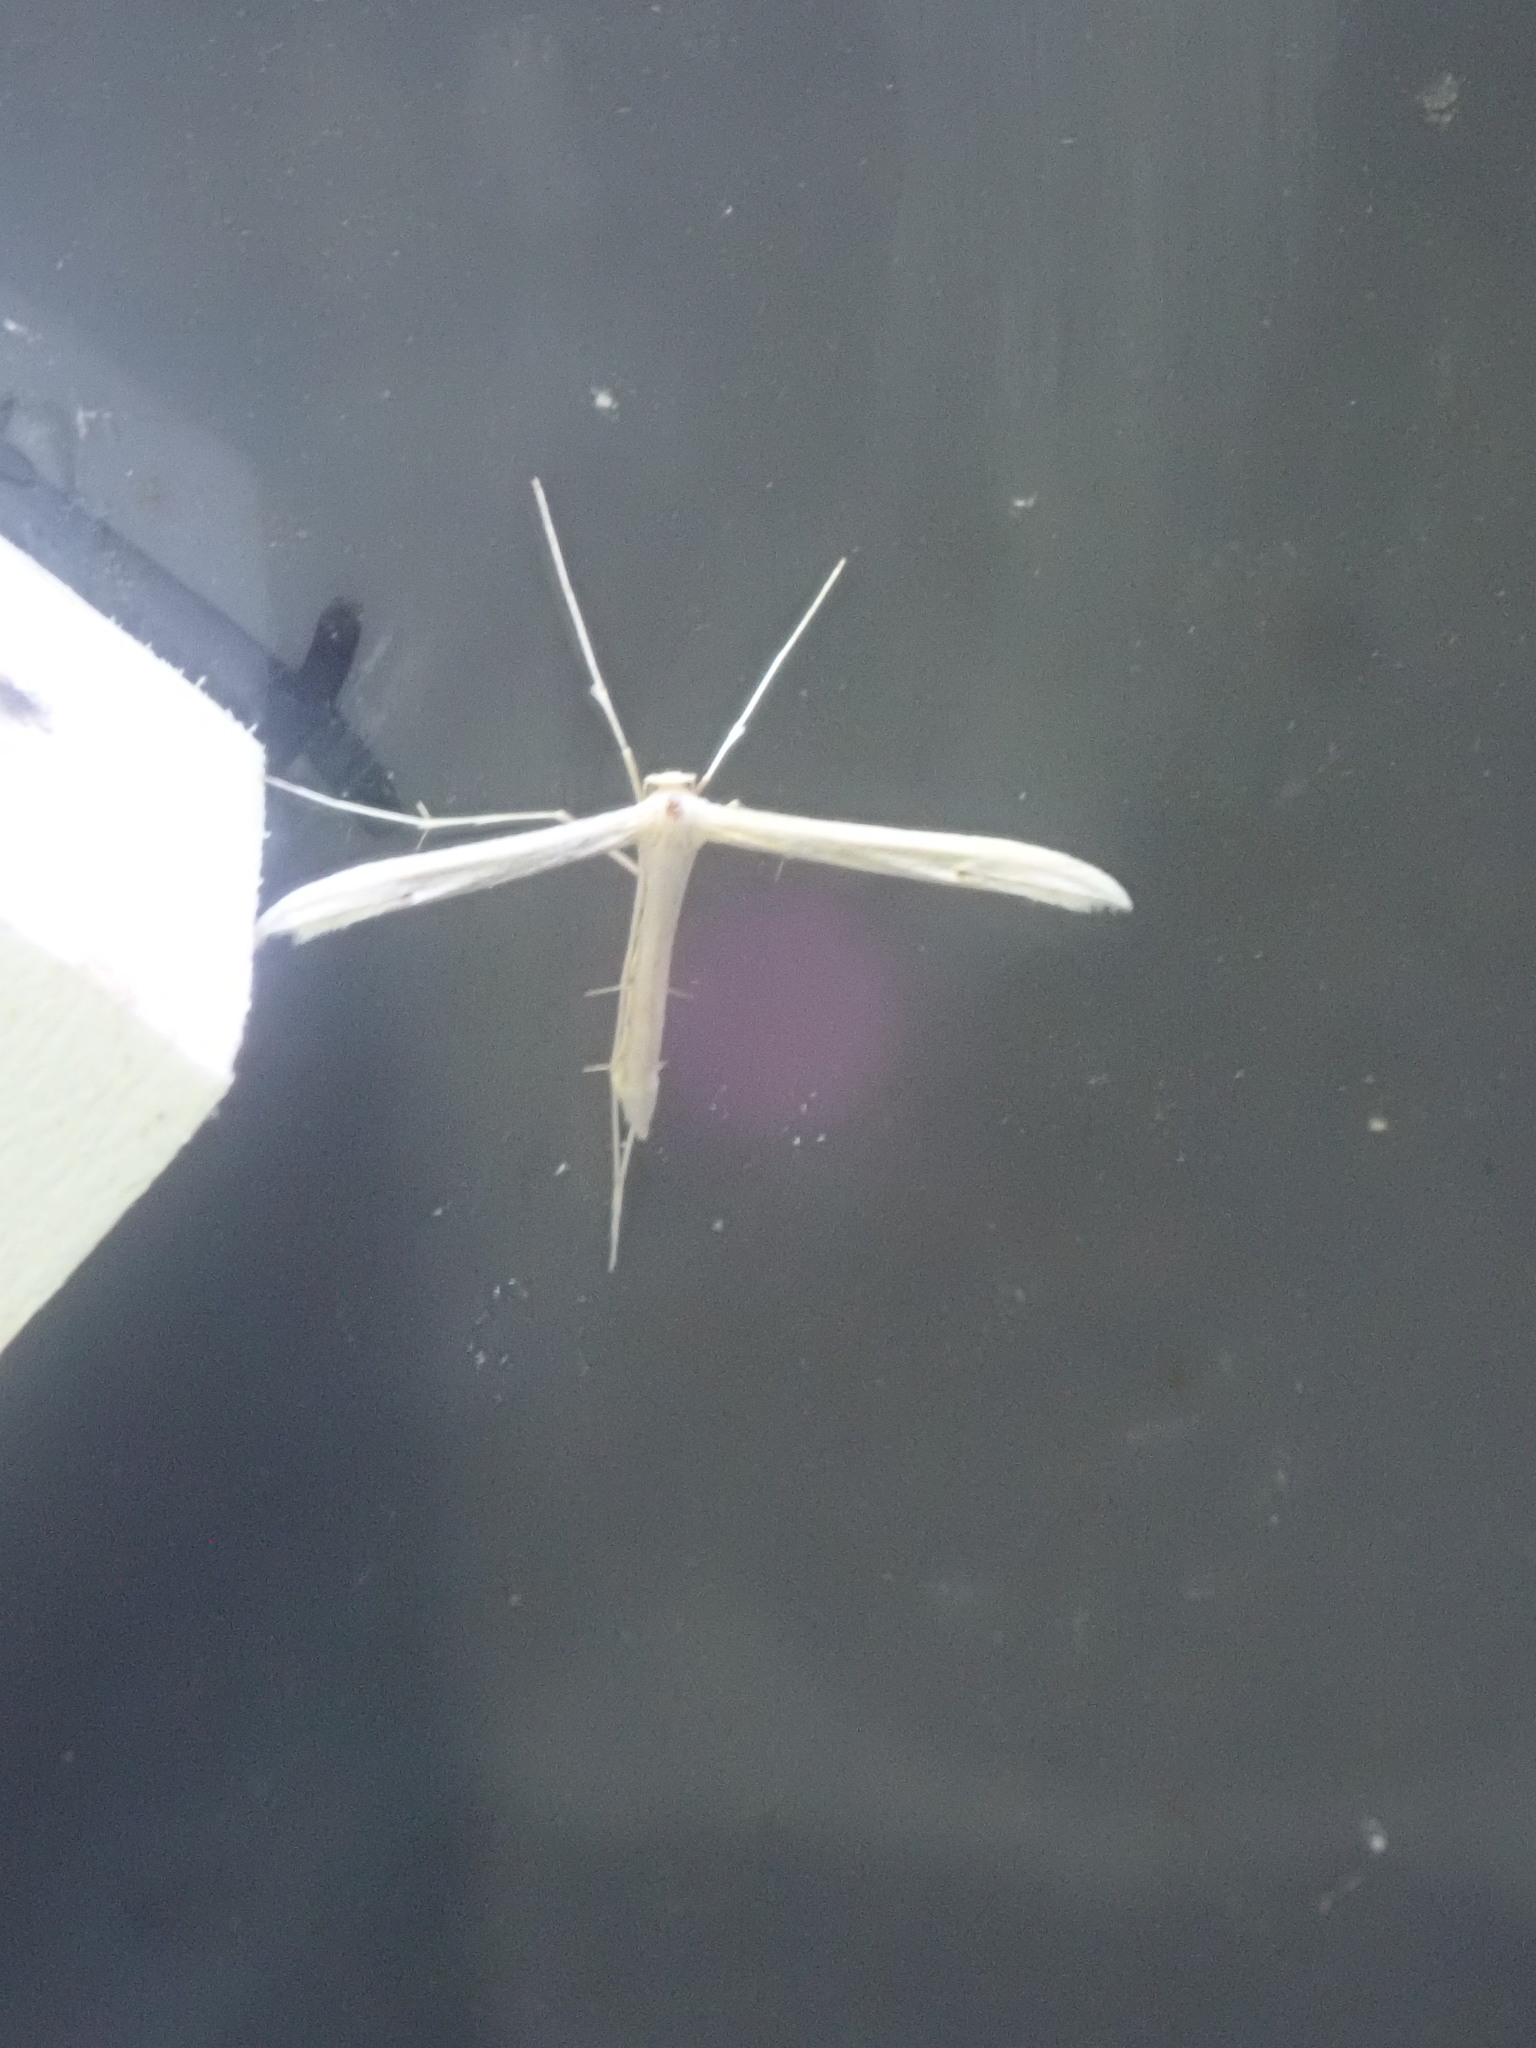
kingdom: Animalia
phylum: Arthropoda
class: Insecta
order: Lepidoptera
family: Pterophoridae
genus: Hellinsia
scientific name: Hellinsia
